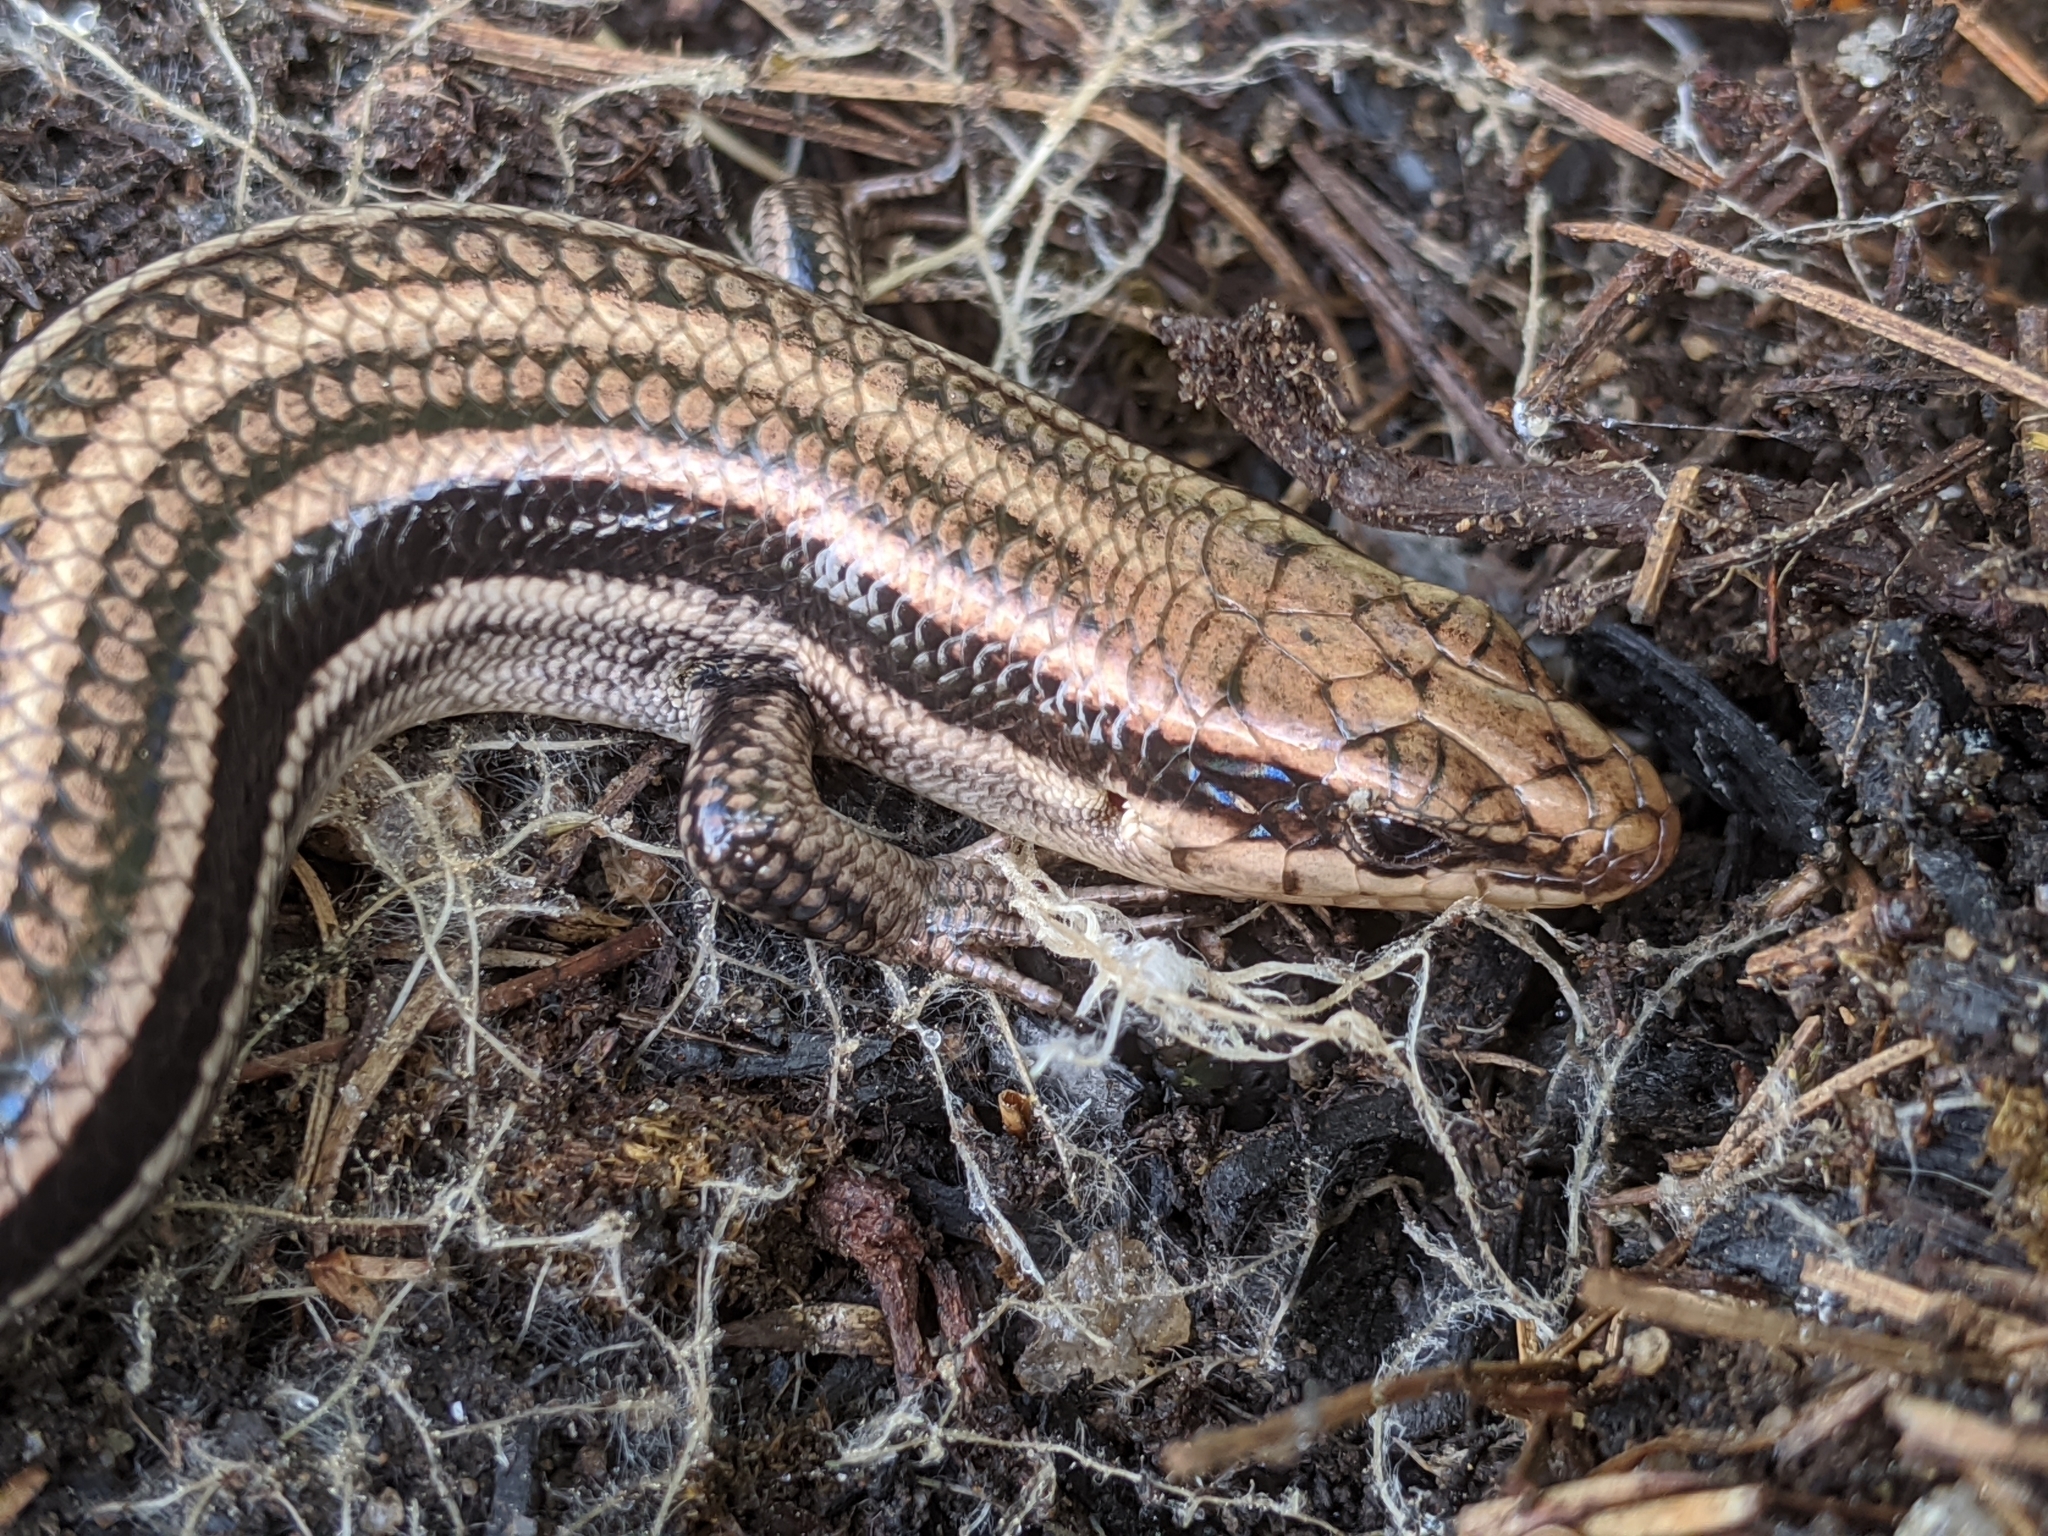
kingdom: Animalia
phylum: Chordata
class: Squamata
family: Scincidae
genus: Plestiodon
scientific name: Plestiodon fasciatus
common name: Five-lined skink
